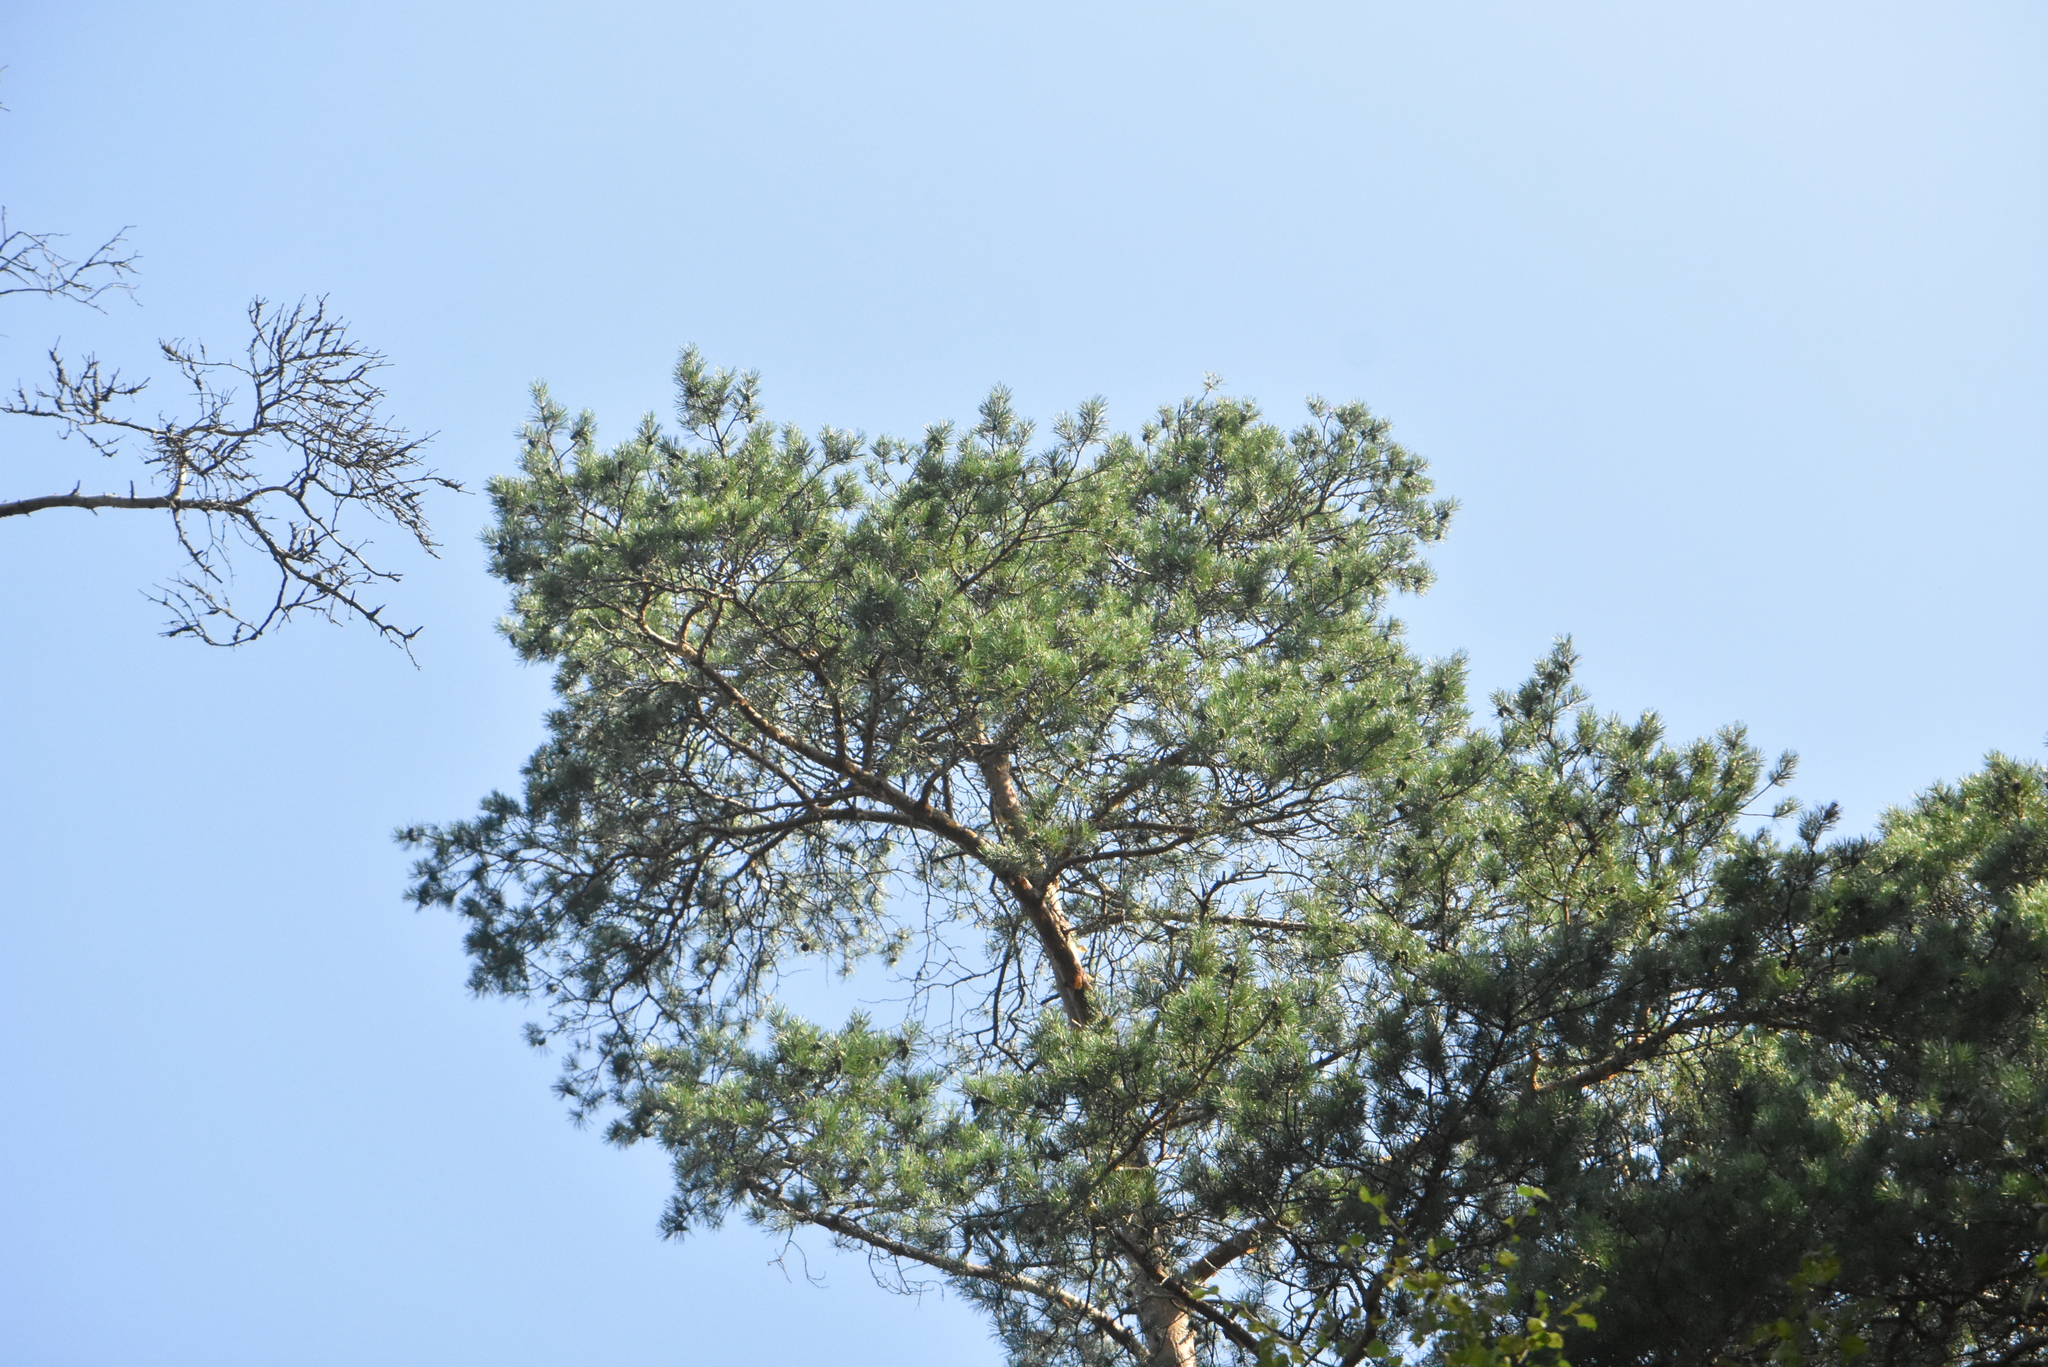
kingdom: Plantae
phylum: Tracheophyta
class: Pinopsida
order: Pinales
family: Pinaceae
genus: Pinus
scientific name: Pinus sylvestris
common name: Scots pine
